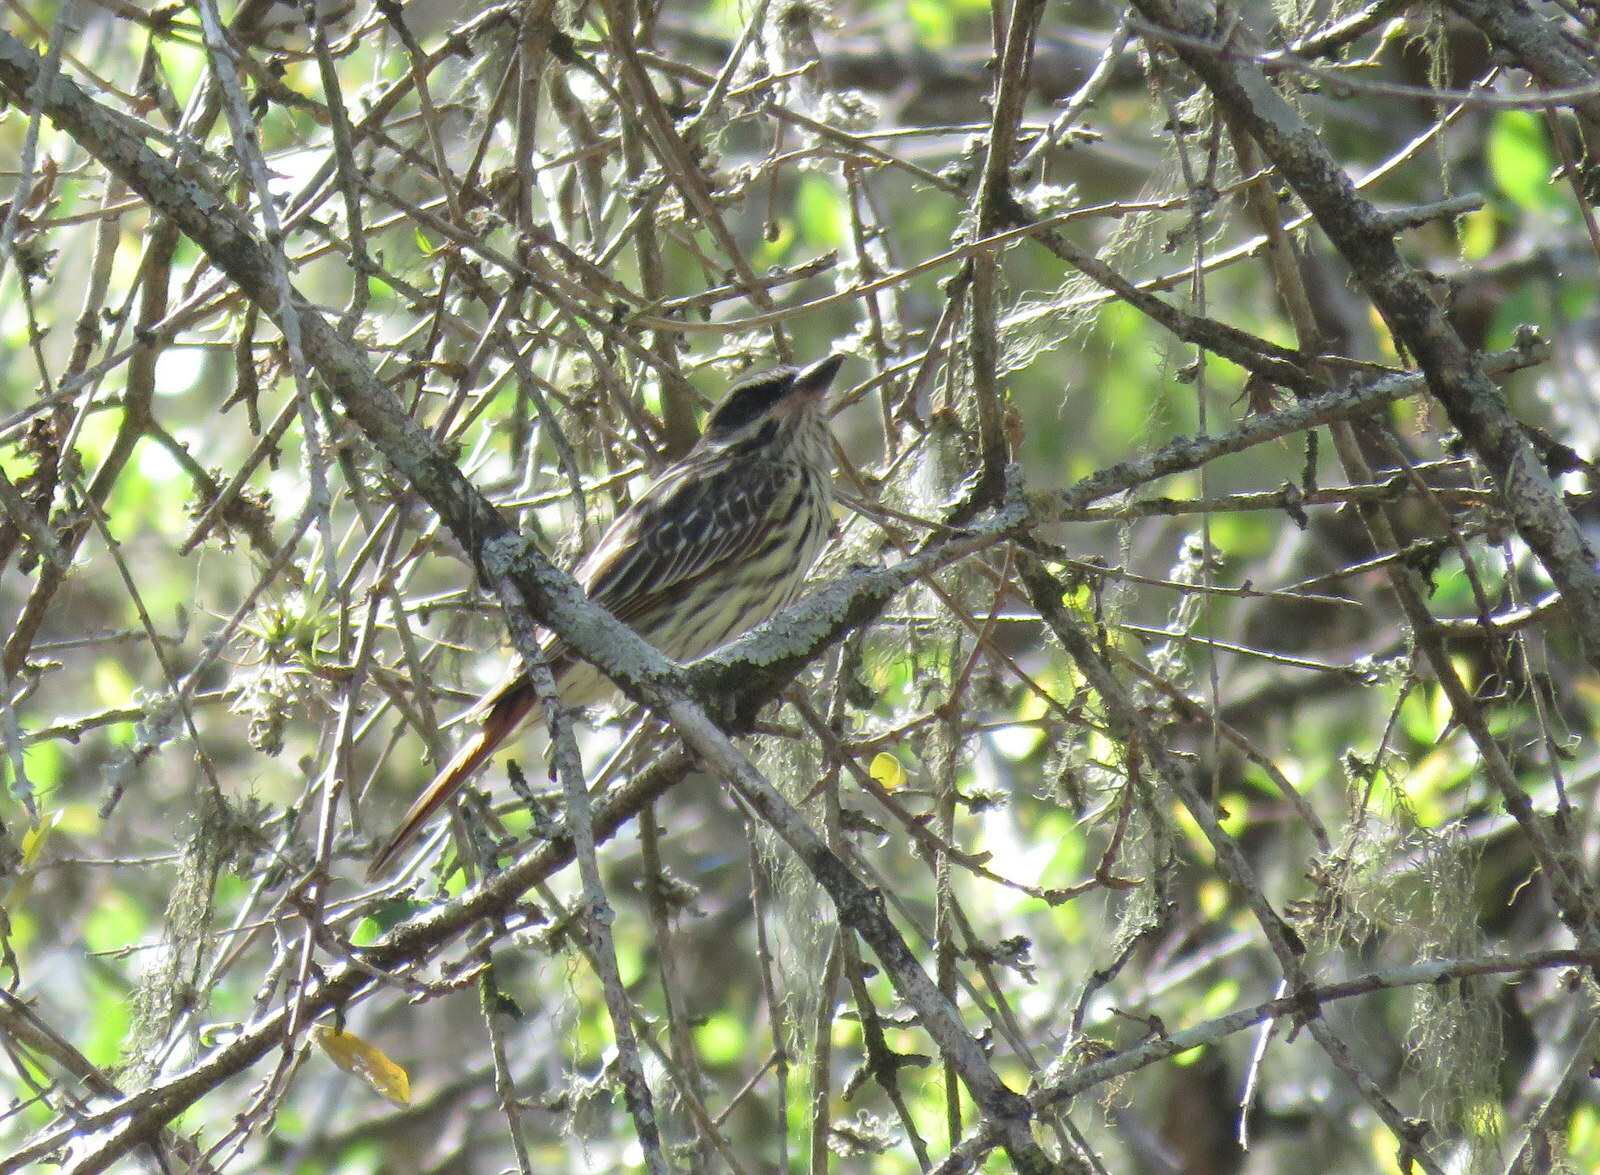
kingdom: Animalia
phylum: Chordata
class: Aves
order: Passeriformes
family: Tyrannidae
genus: Myiodynastes
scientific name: Myiodynastes maculatus
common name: Streaked flycatcher
